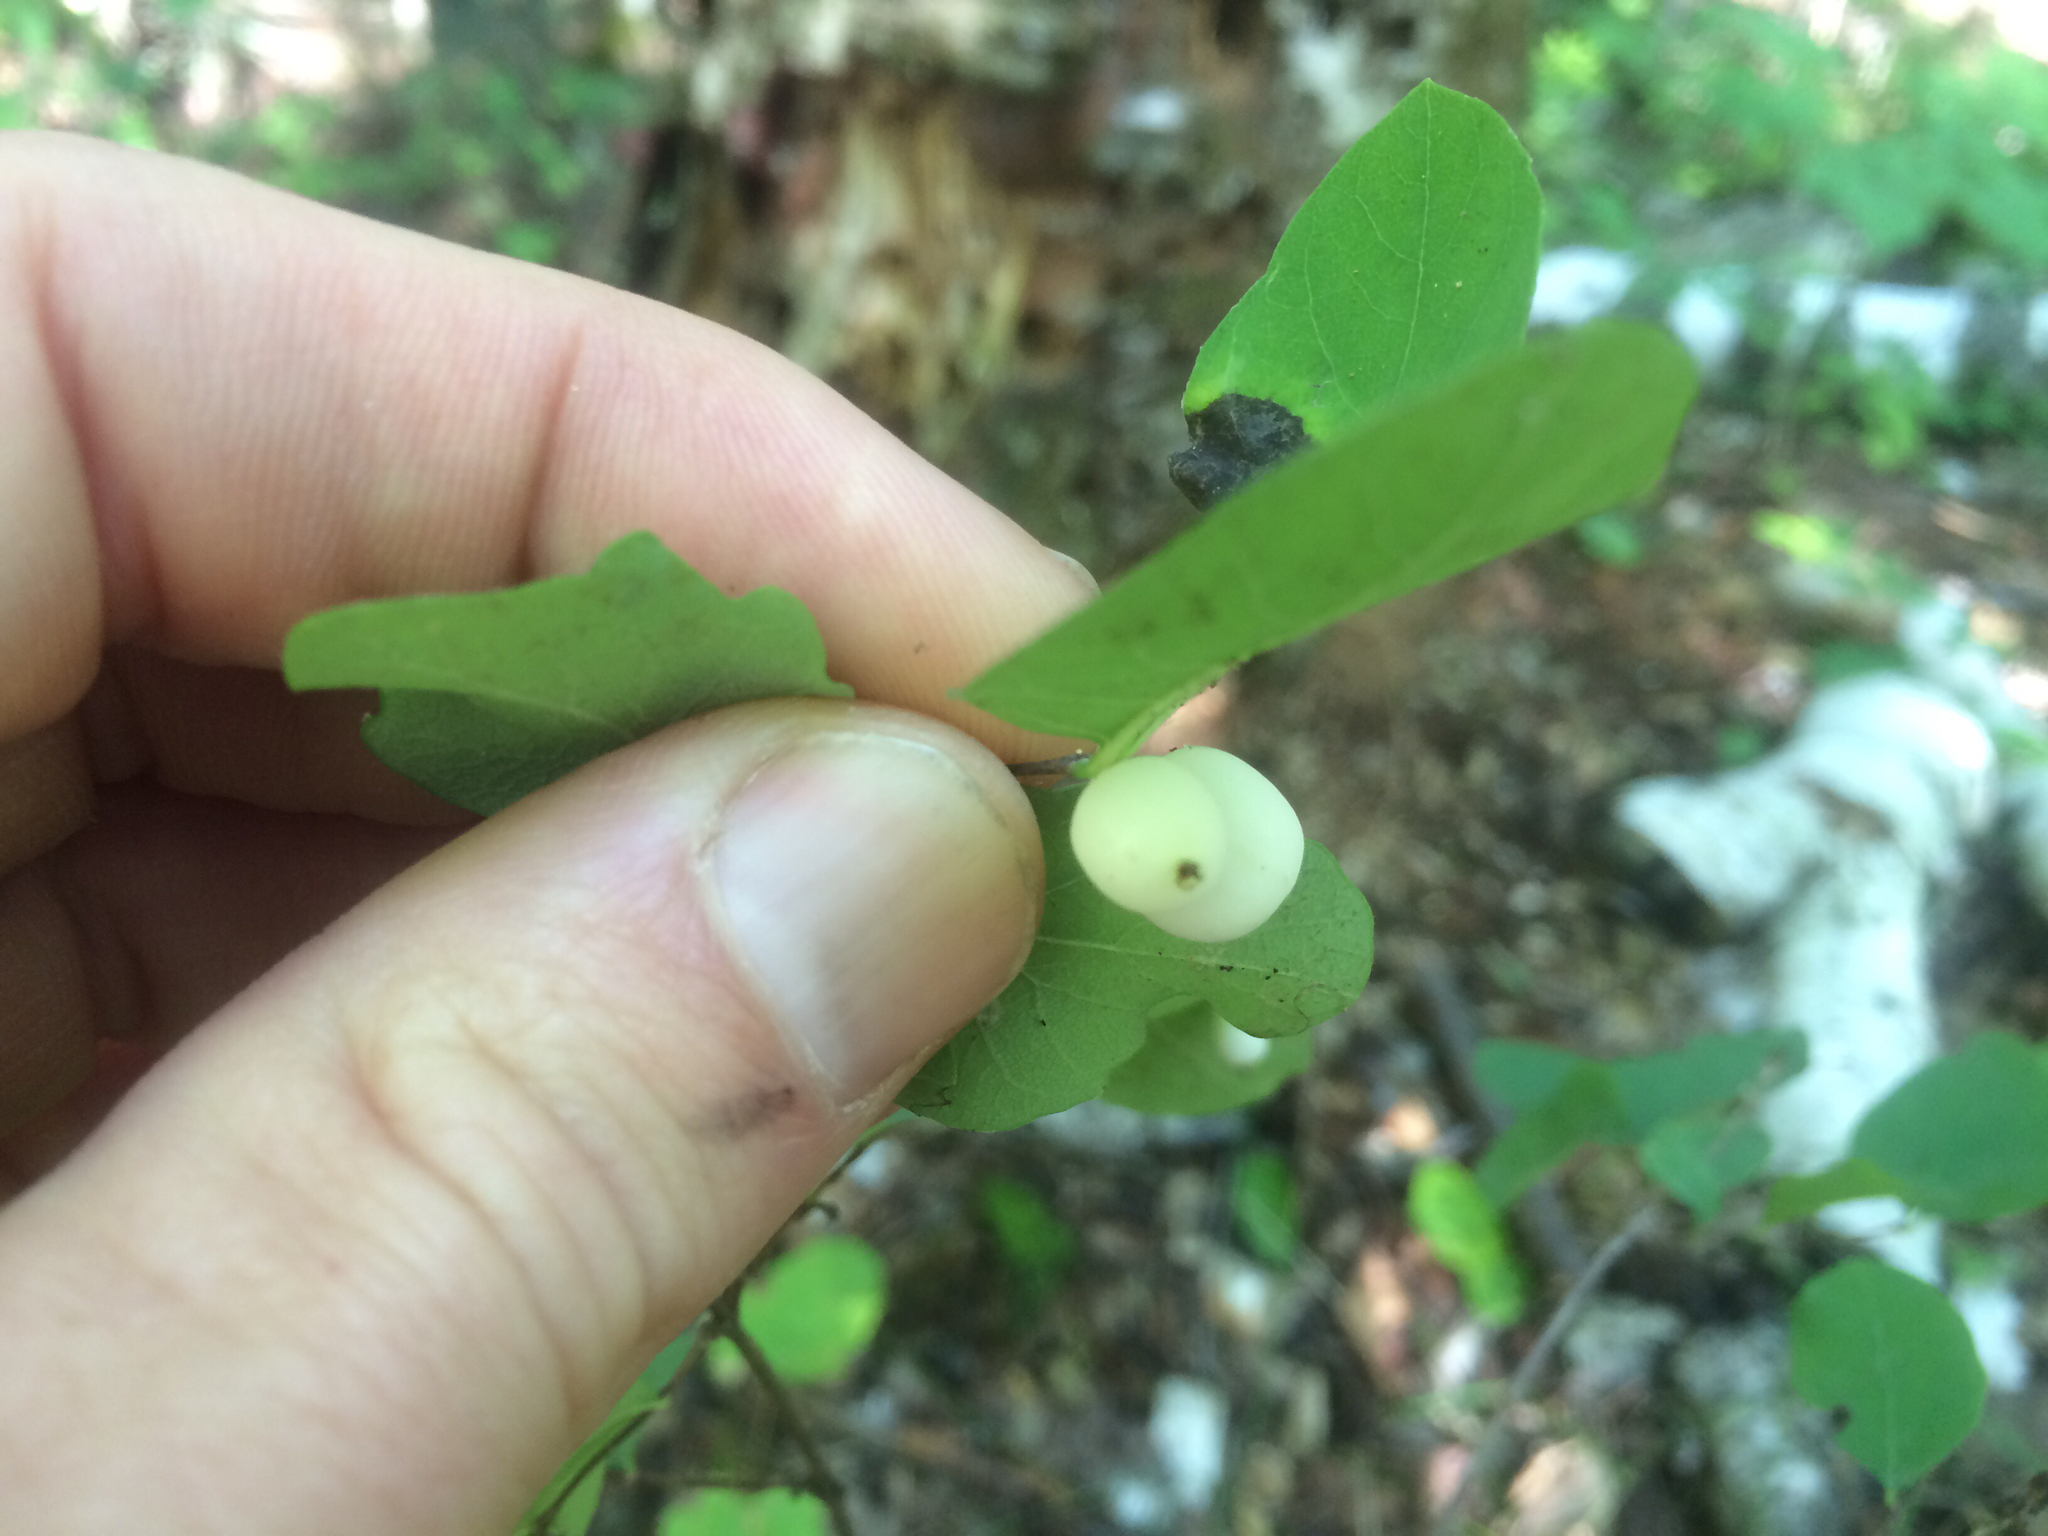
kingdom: Plantae
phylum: Tracheophyta
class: Magnoliopsida
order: Dipsacales
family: Caprifoliaceae
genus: Symphoricarpos
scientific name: Symphoricarpos albus
